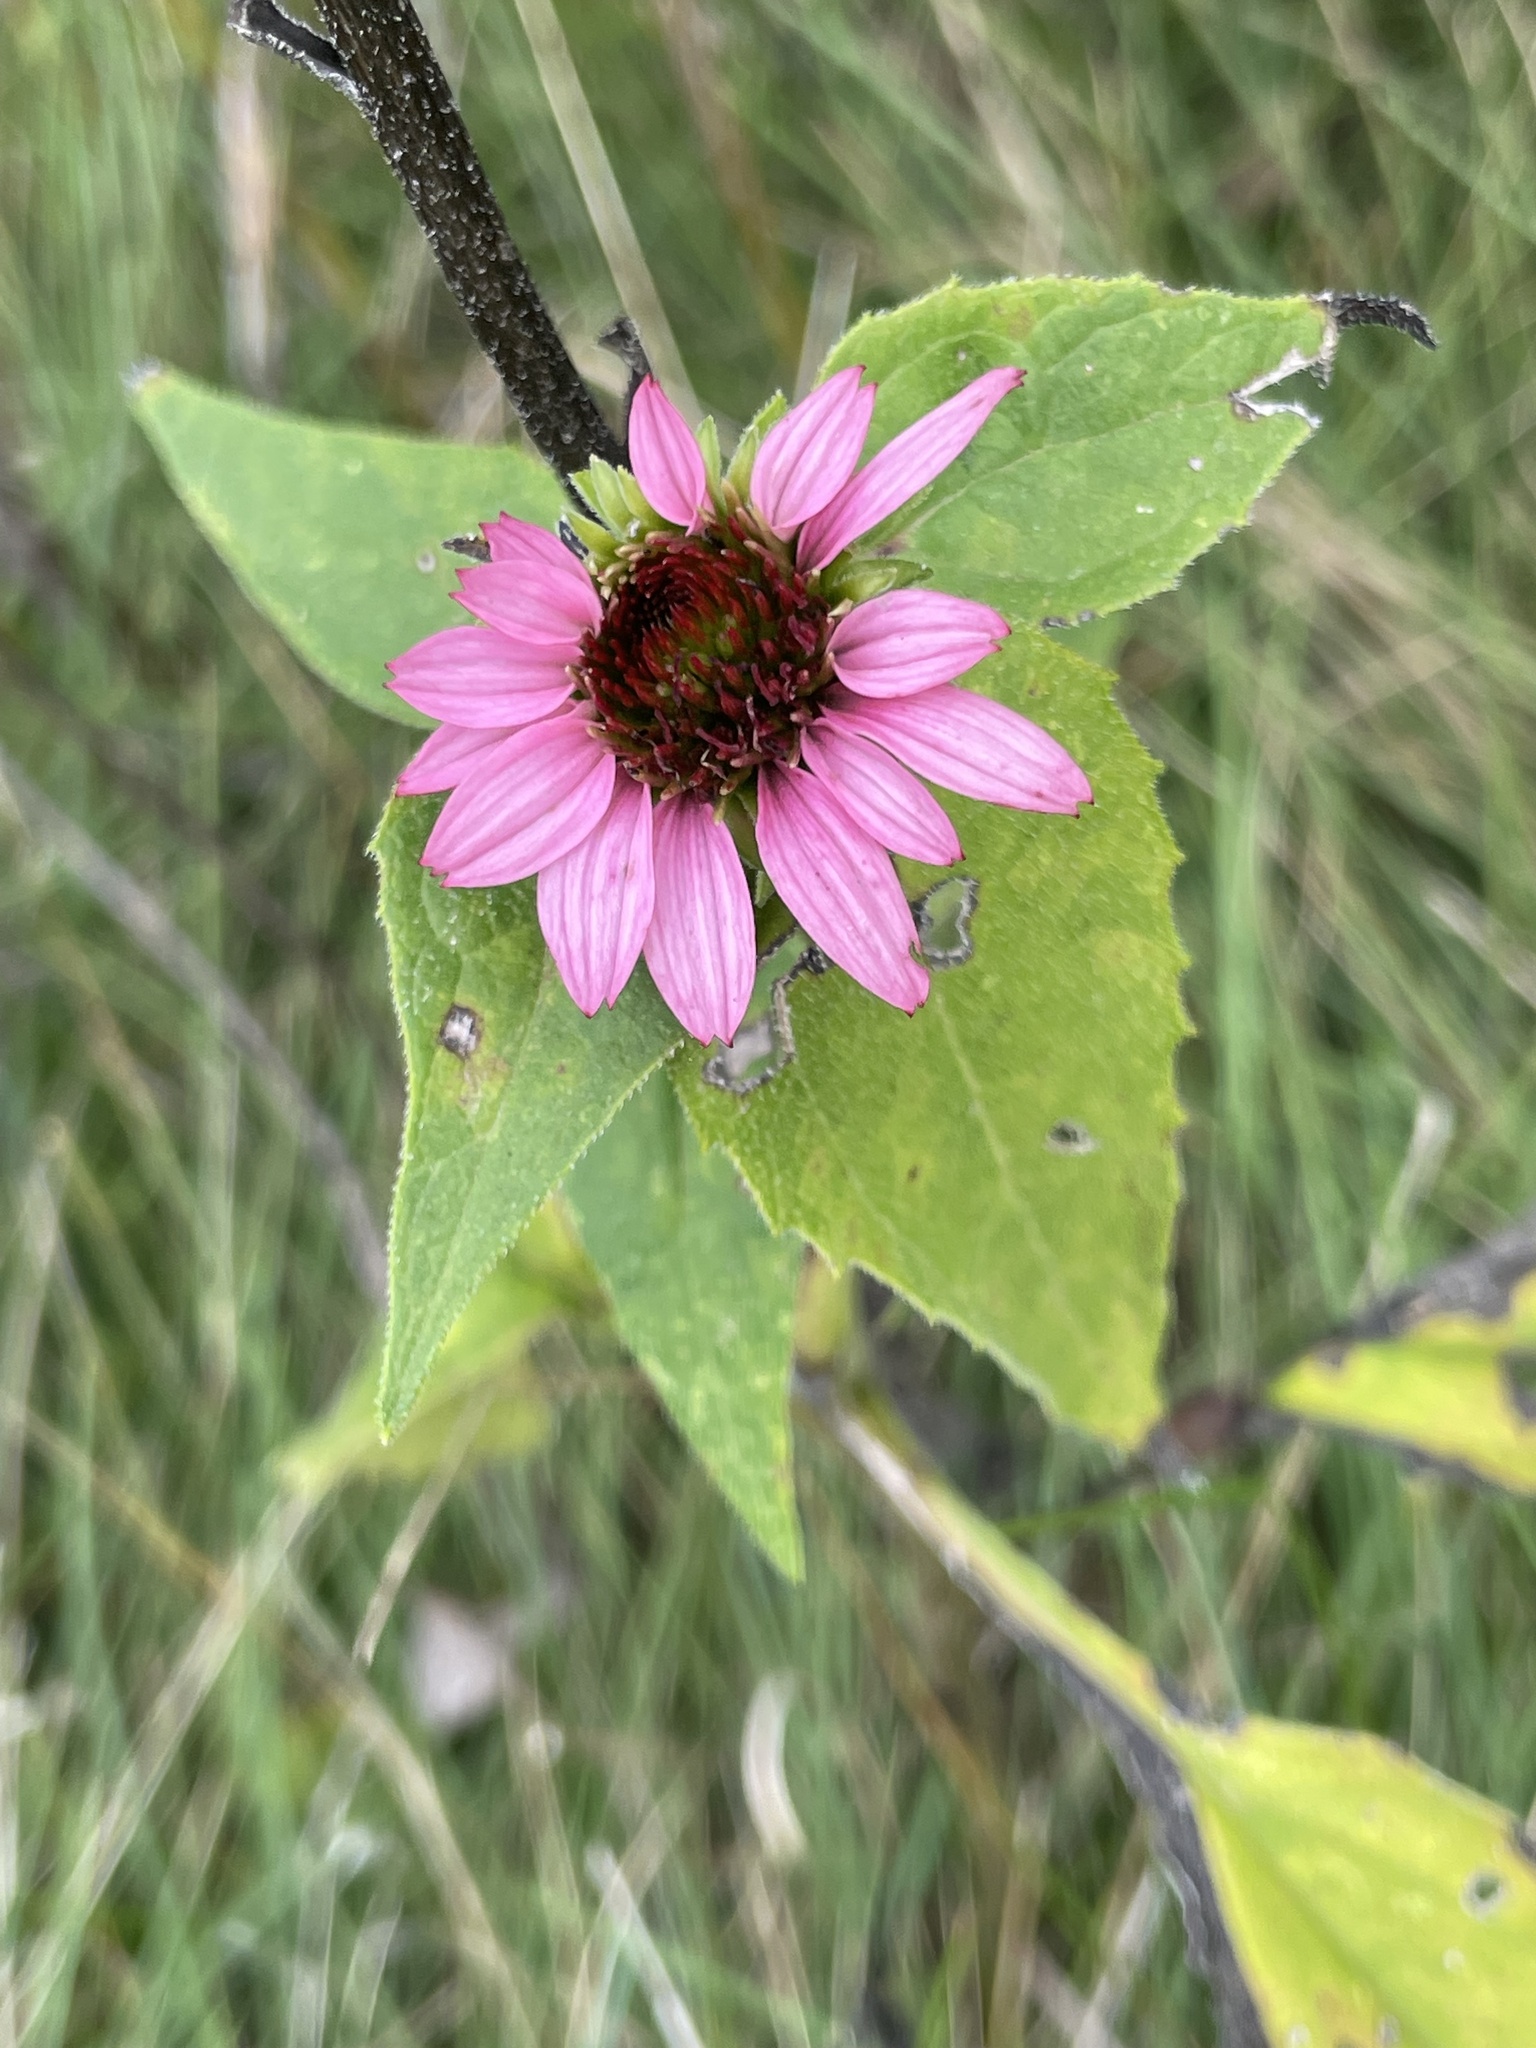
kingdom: Plantae
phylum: Tracheophyta
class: Magnoliopsida
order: Asterales
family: Asteraceae
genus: Echinacea
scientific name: Echinacea purpurea
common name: Broad-leaved purple coneflower
